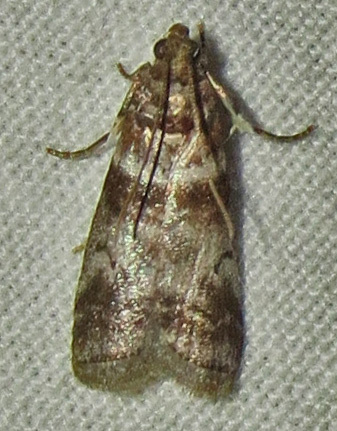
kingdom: Animalia
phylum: Arthropoda
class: Insecta
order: Lepidoptera
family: Pyralidae
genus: Sciota
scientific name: Sciota uvinella
